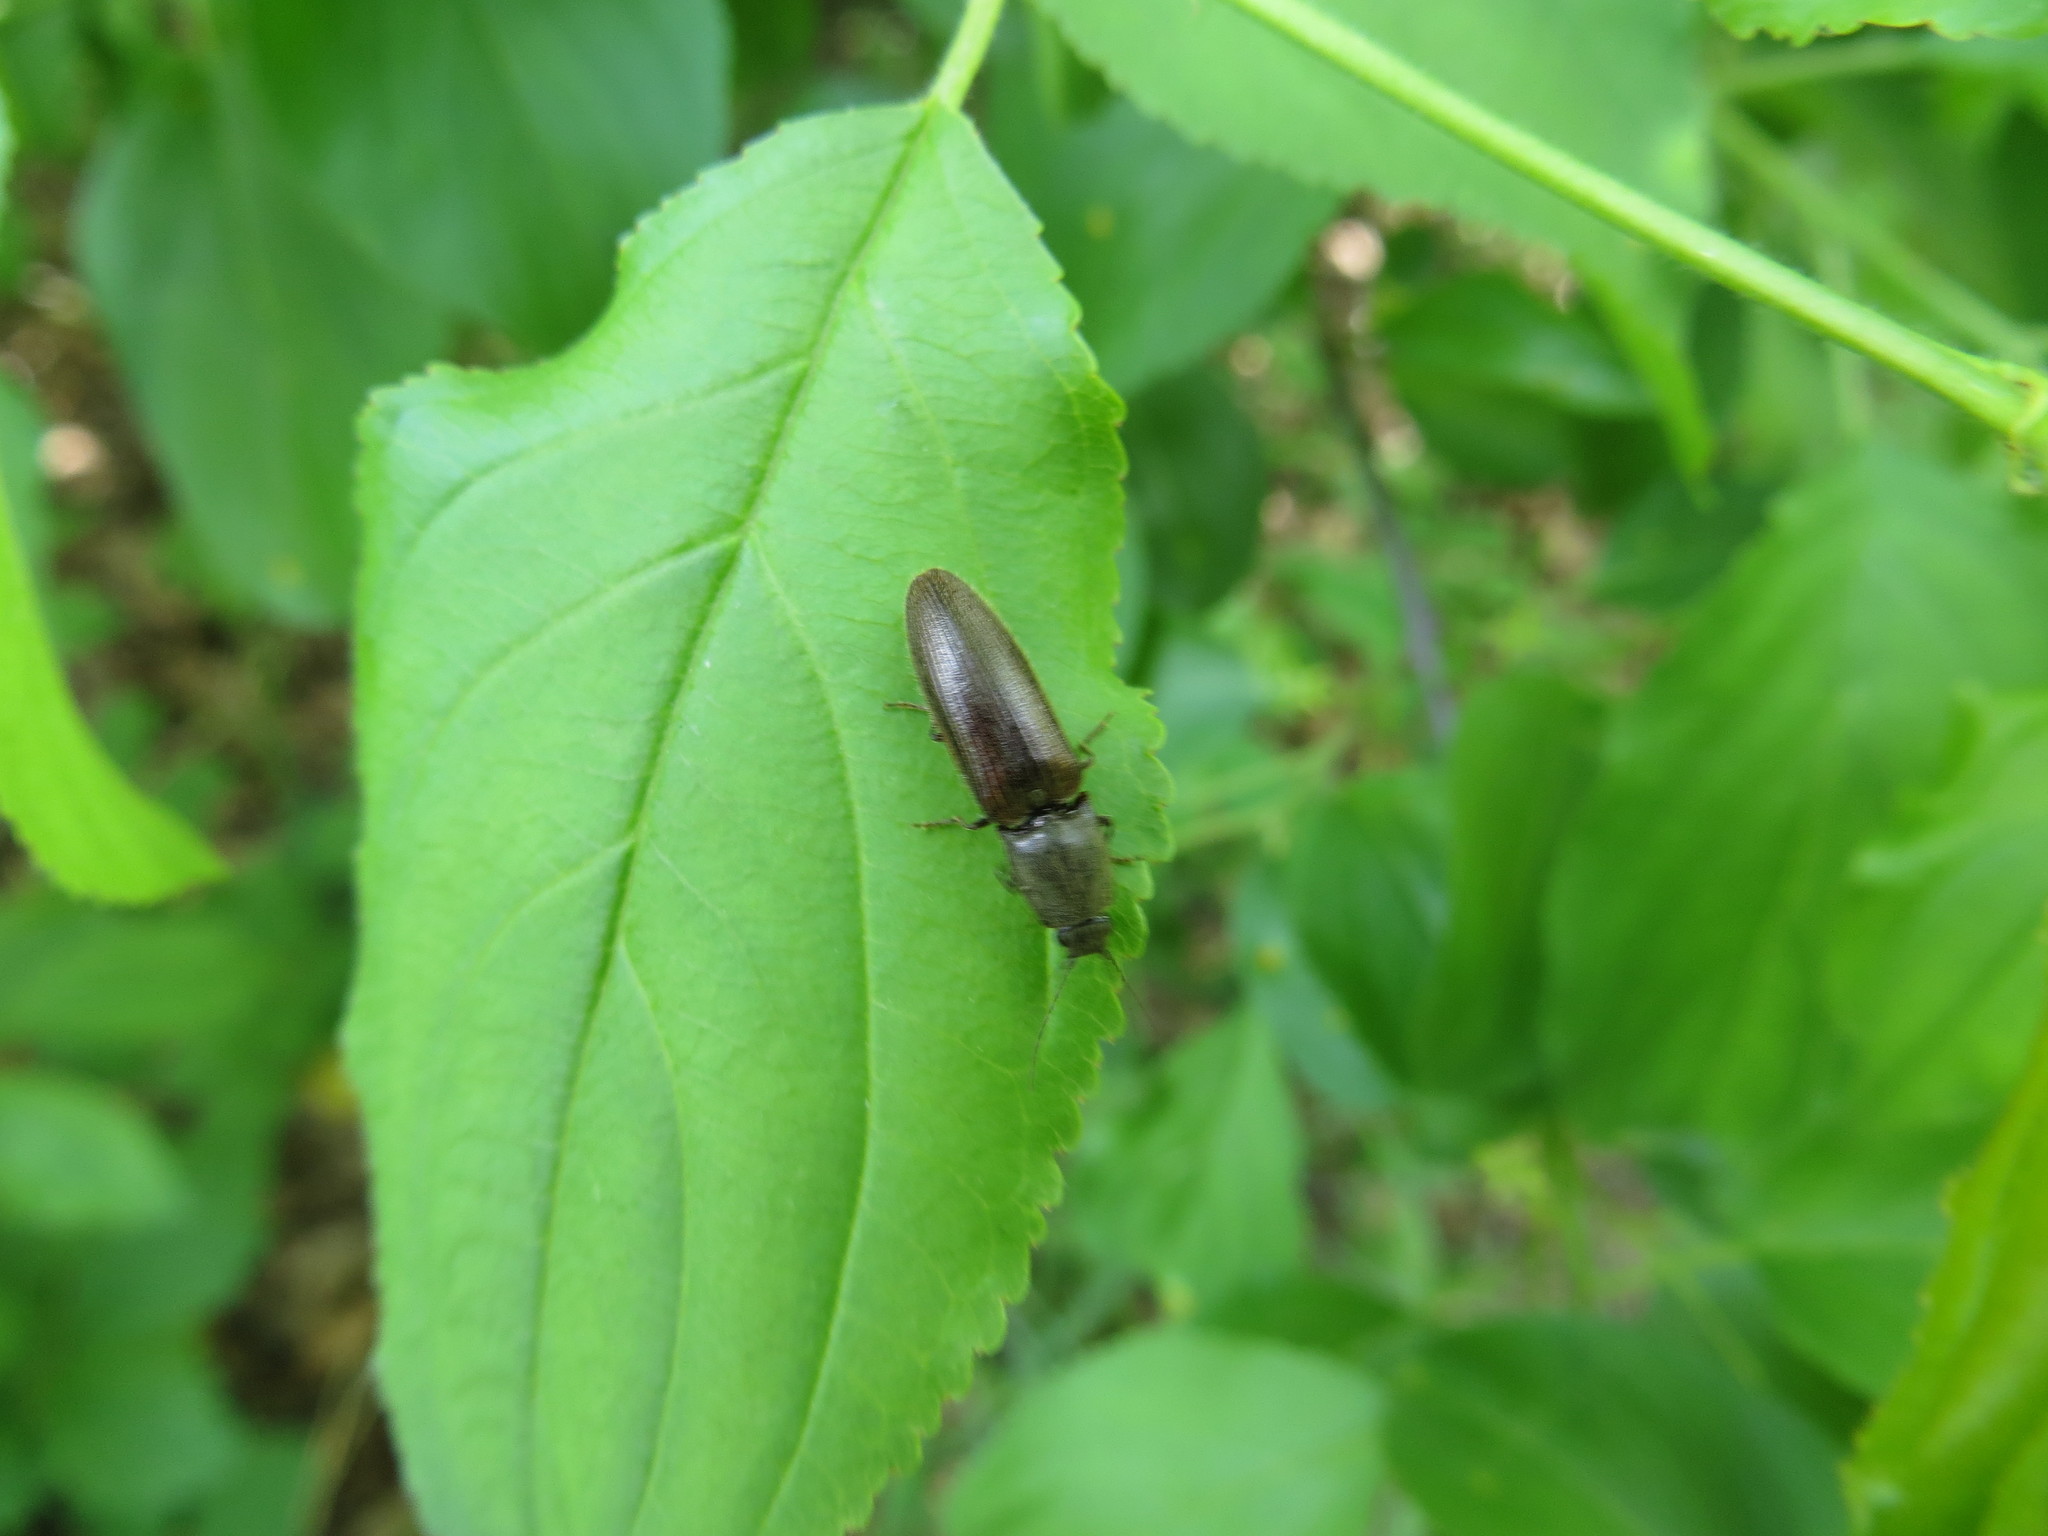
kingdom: Animalia
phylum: Arthropoda
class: Insecta
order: Coleoptera
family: Elateridae
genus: Athous
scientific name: Athous haemorrhoidalis
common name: Red-brown click beetle
